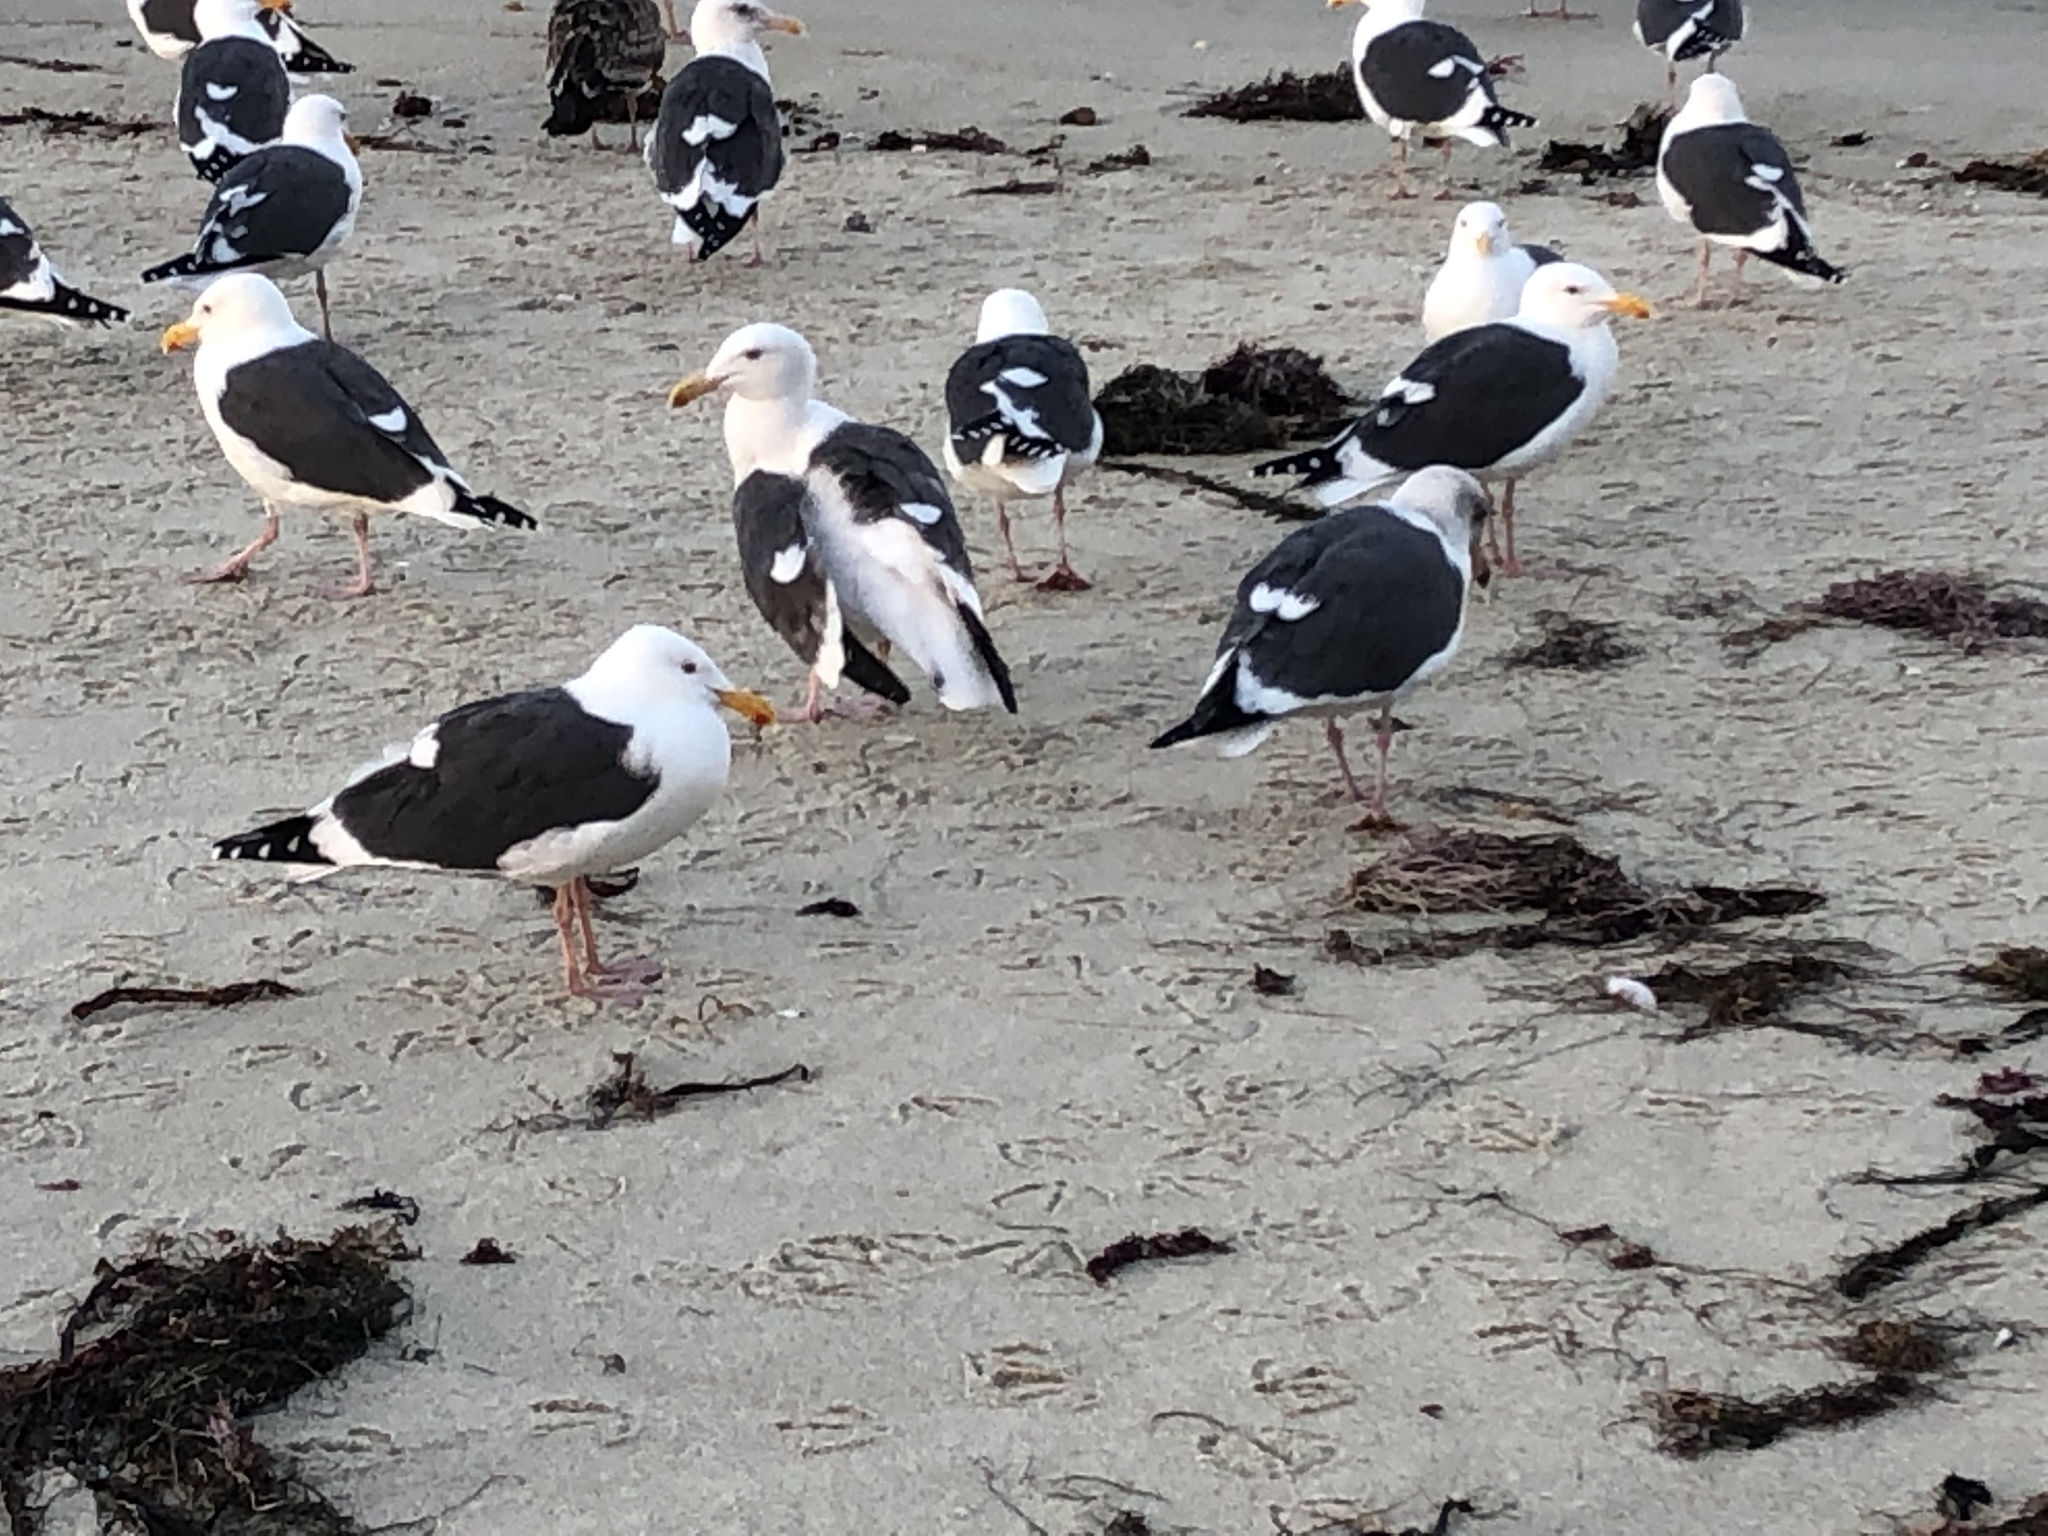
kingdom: Animalia
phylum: Chordata
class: Aves
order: Charadriiformes
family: Laridae
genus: Larus
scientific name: Larus occidentalis
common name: Western gull
